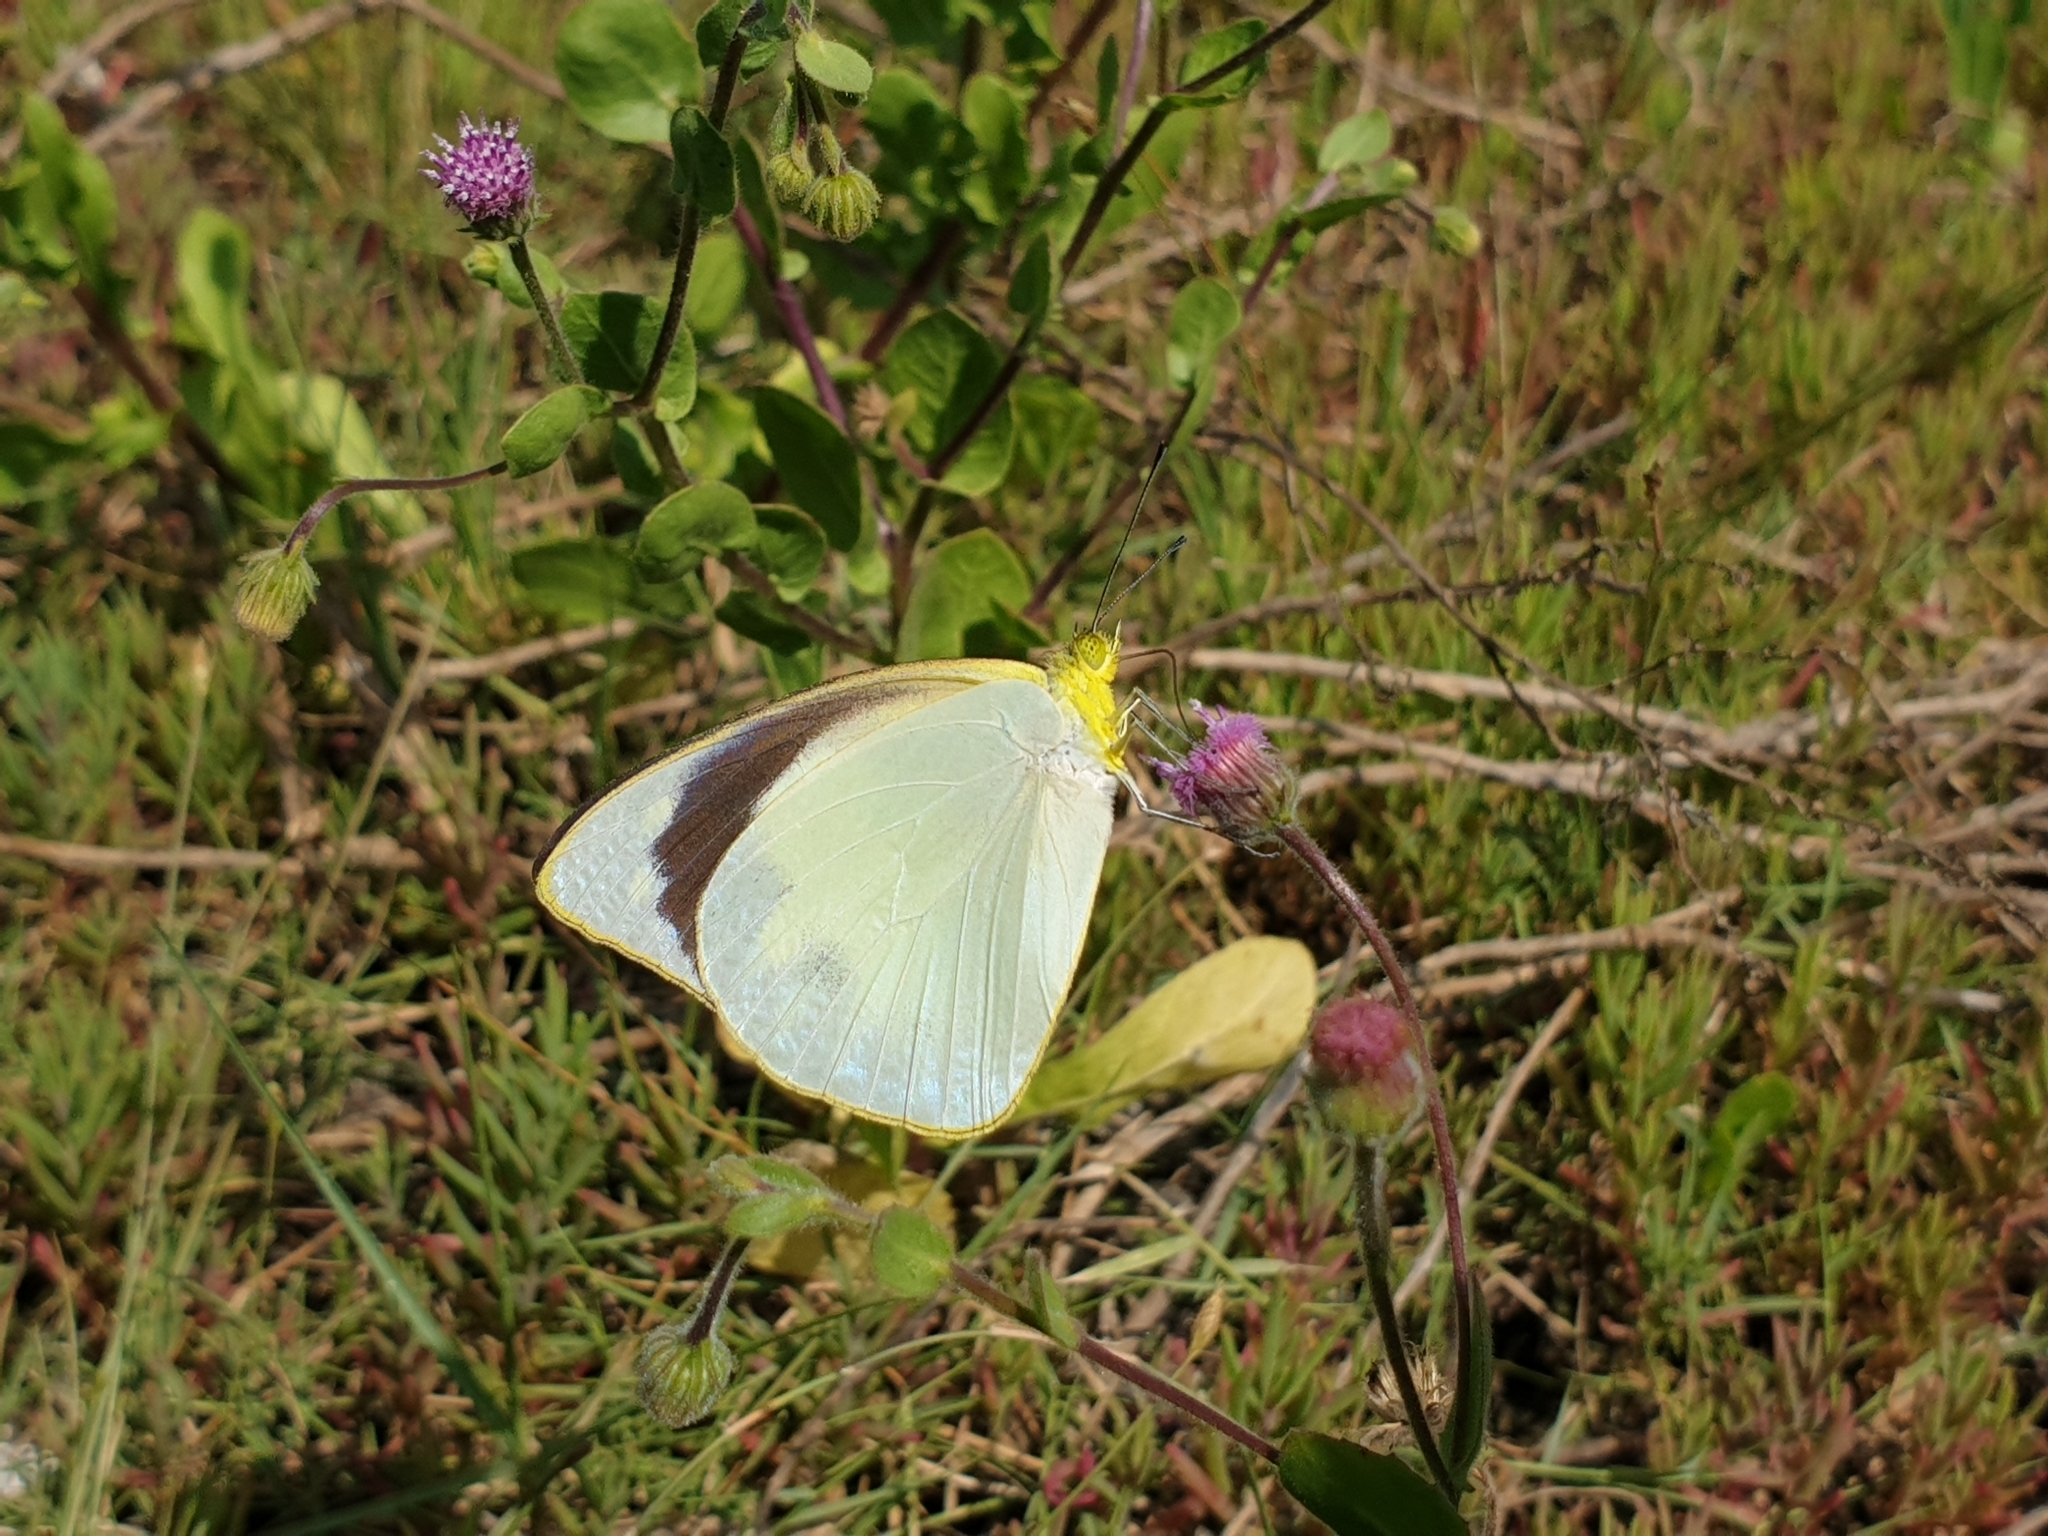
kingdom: Animalia
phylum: Arthropoda
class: Insecta
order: Lepidoptera
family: Pieridae
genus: Appias
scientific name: Appias galene
